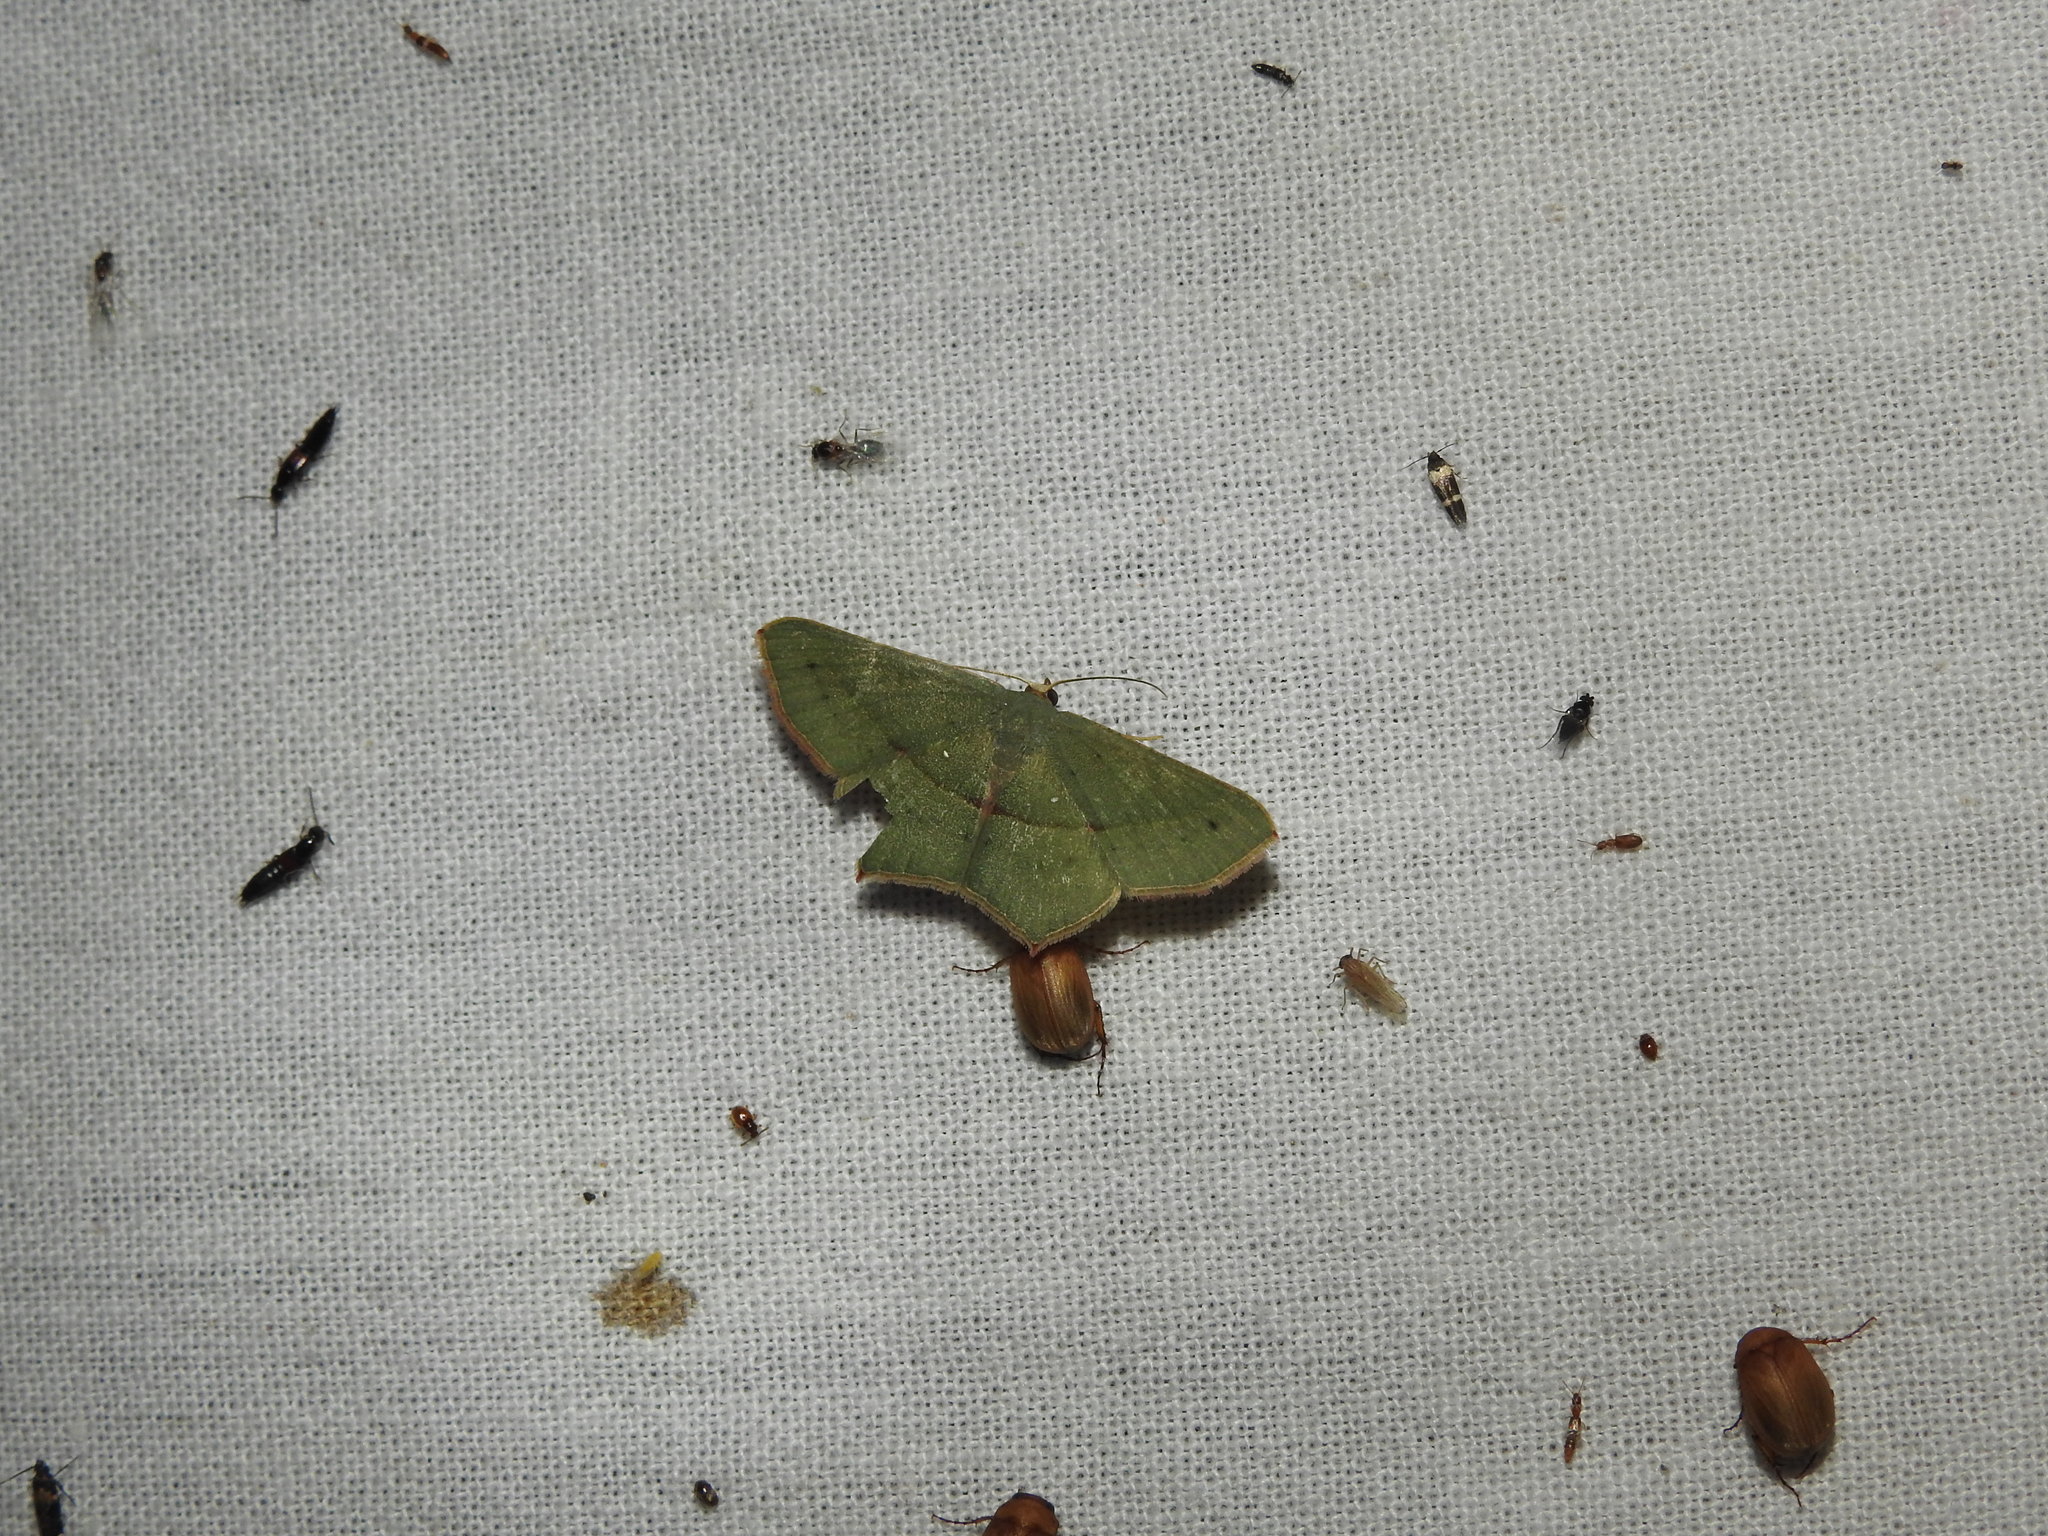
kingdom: Animalia
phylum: Arthropoda
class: Insecta
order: Lepidoptera
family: Geometridae
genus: Traminda
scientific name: Traminda mundissima
